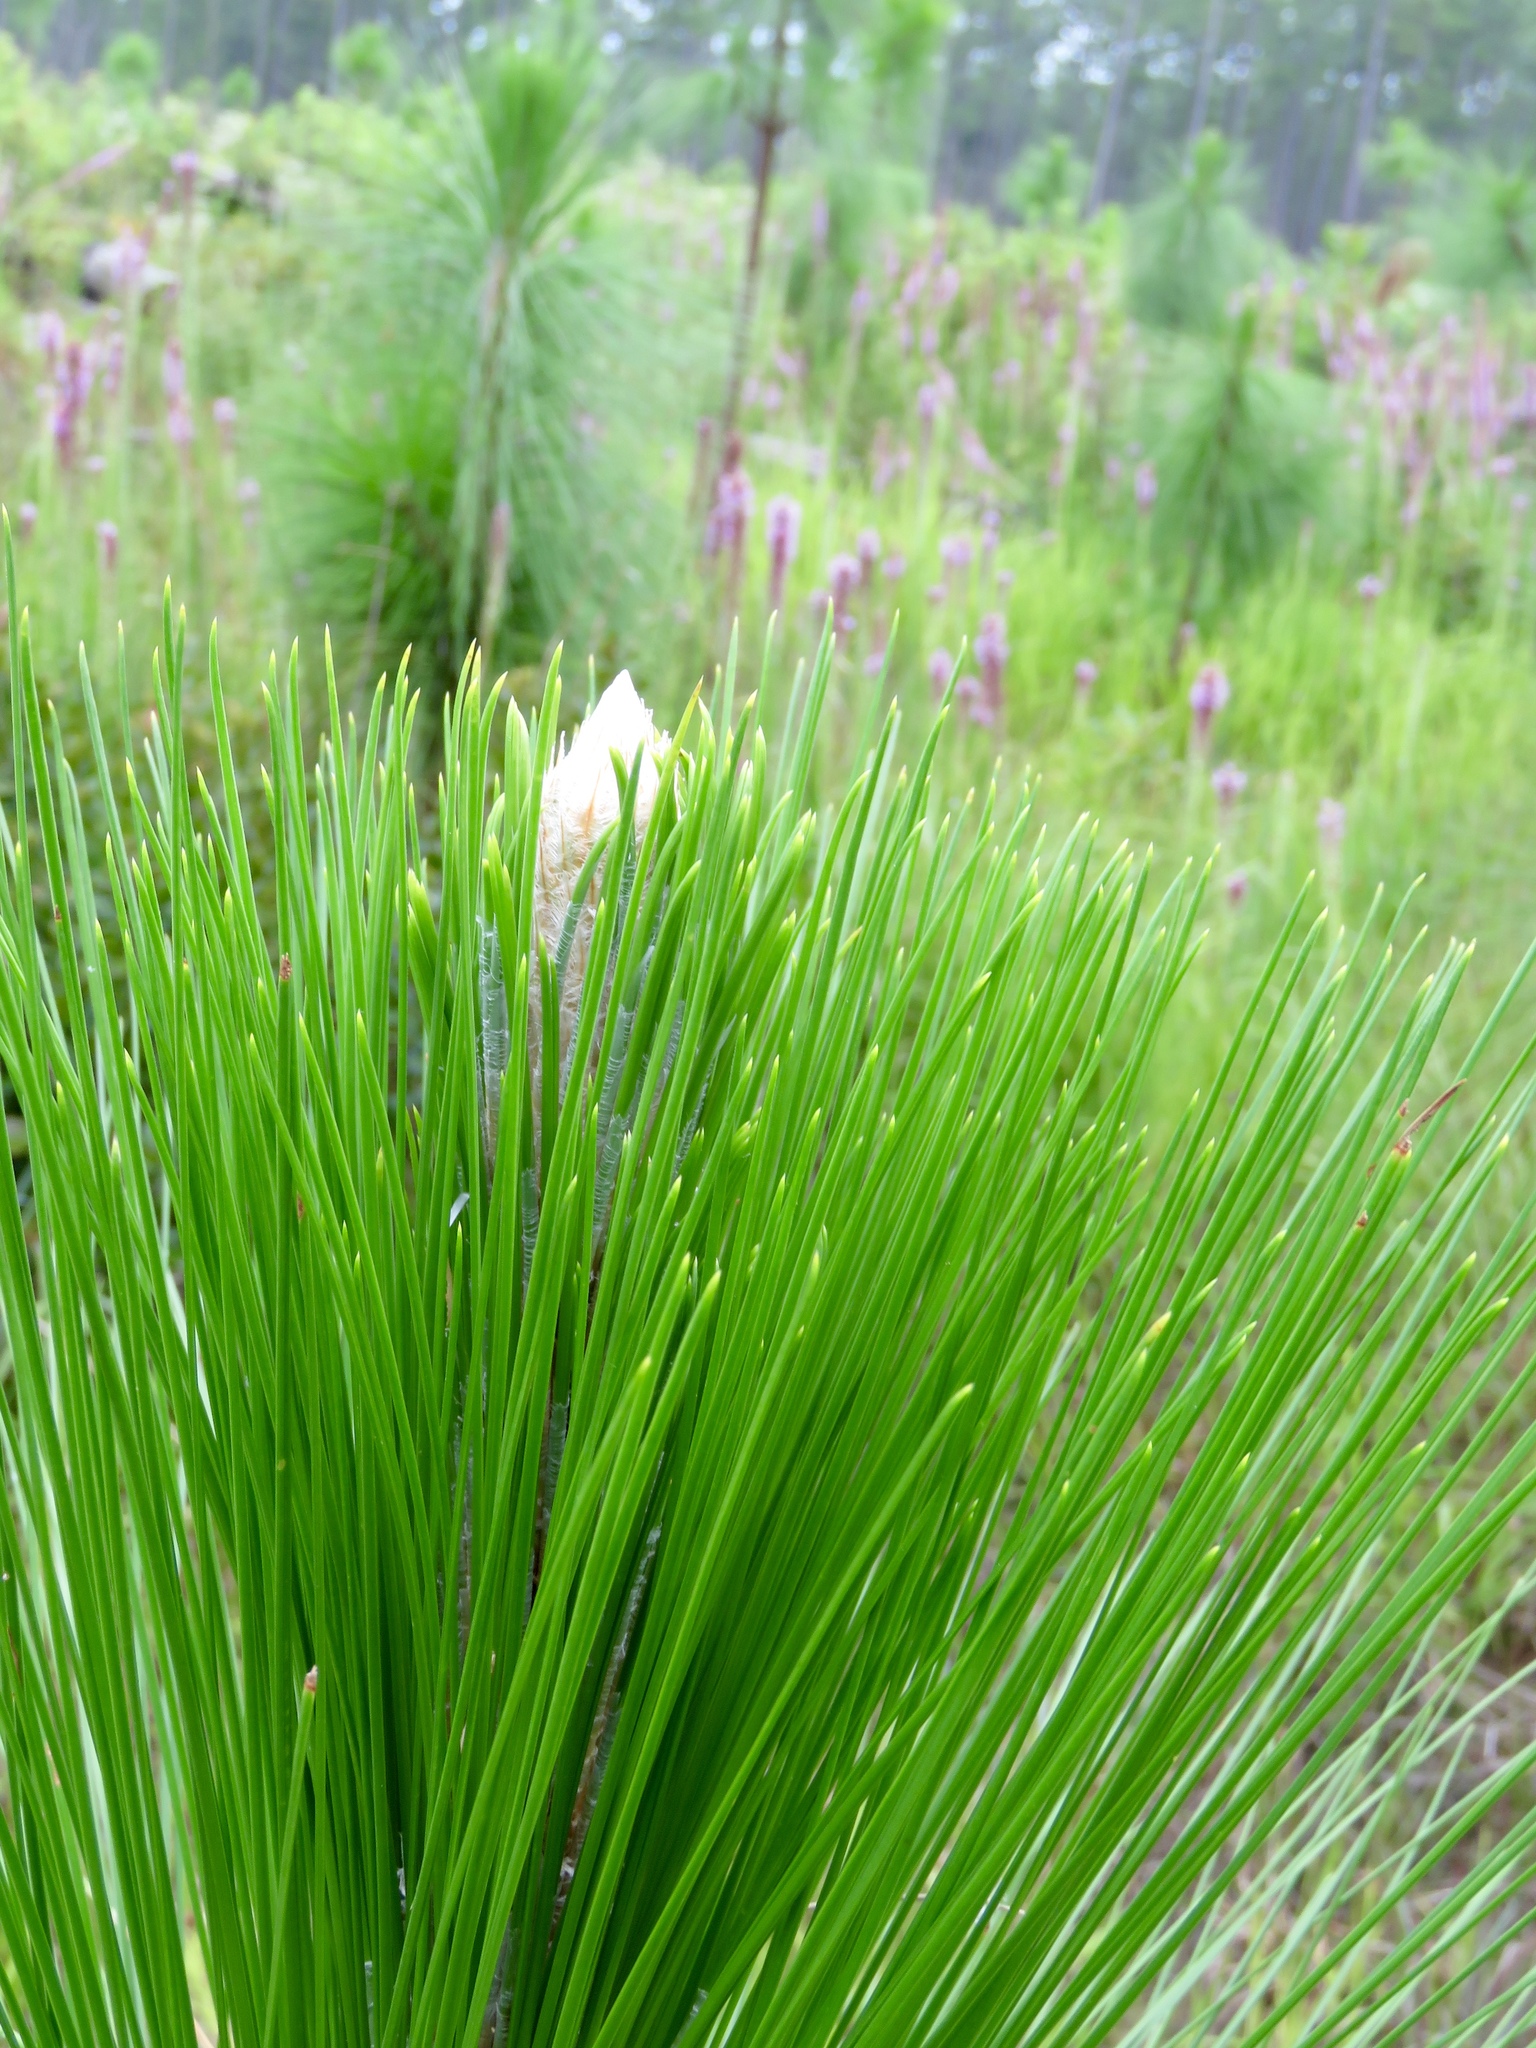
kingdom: Plantae
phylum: Tracheophyta
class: Pinopsida
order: Pinales
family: Pinaceae
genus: Pinus
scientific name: Pinus palustris
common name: Longleaf pine
